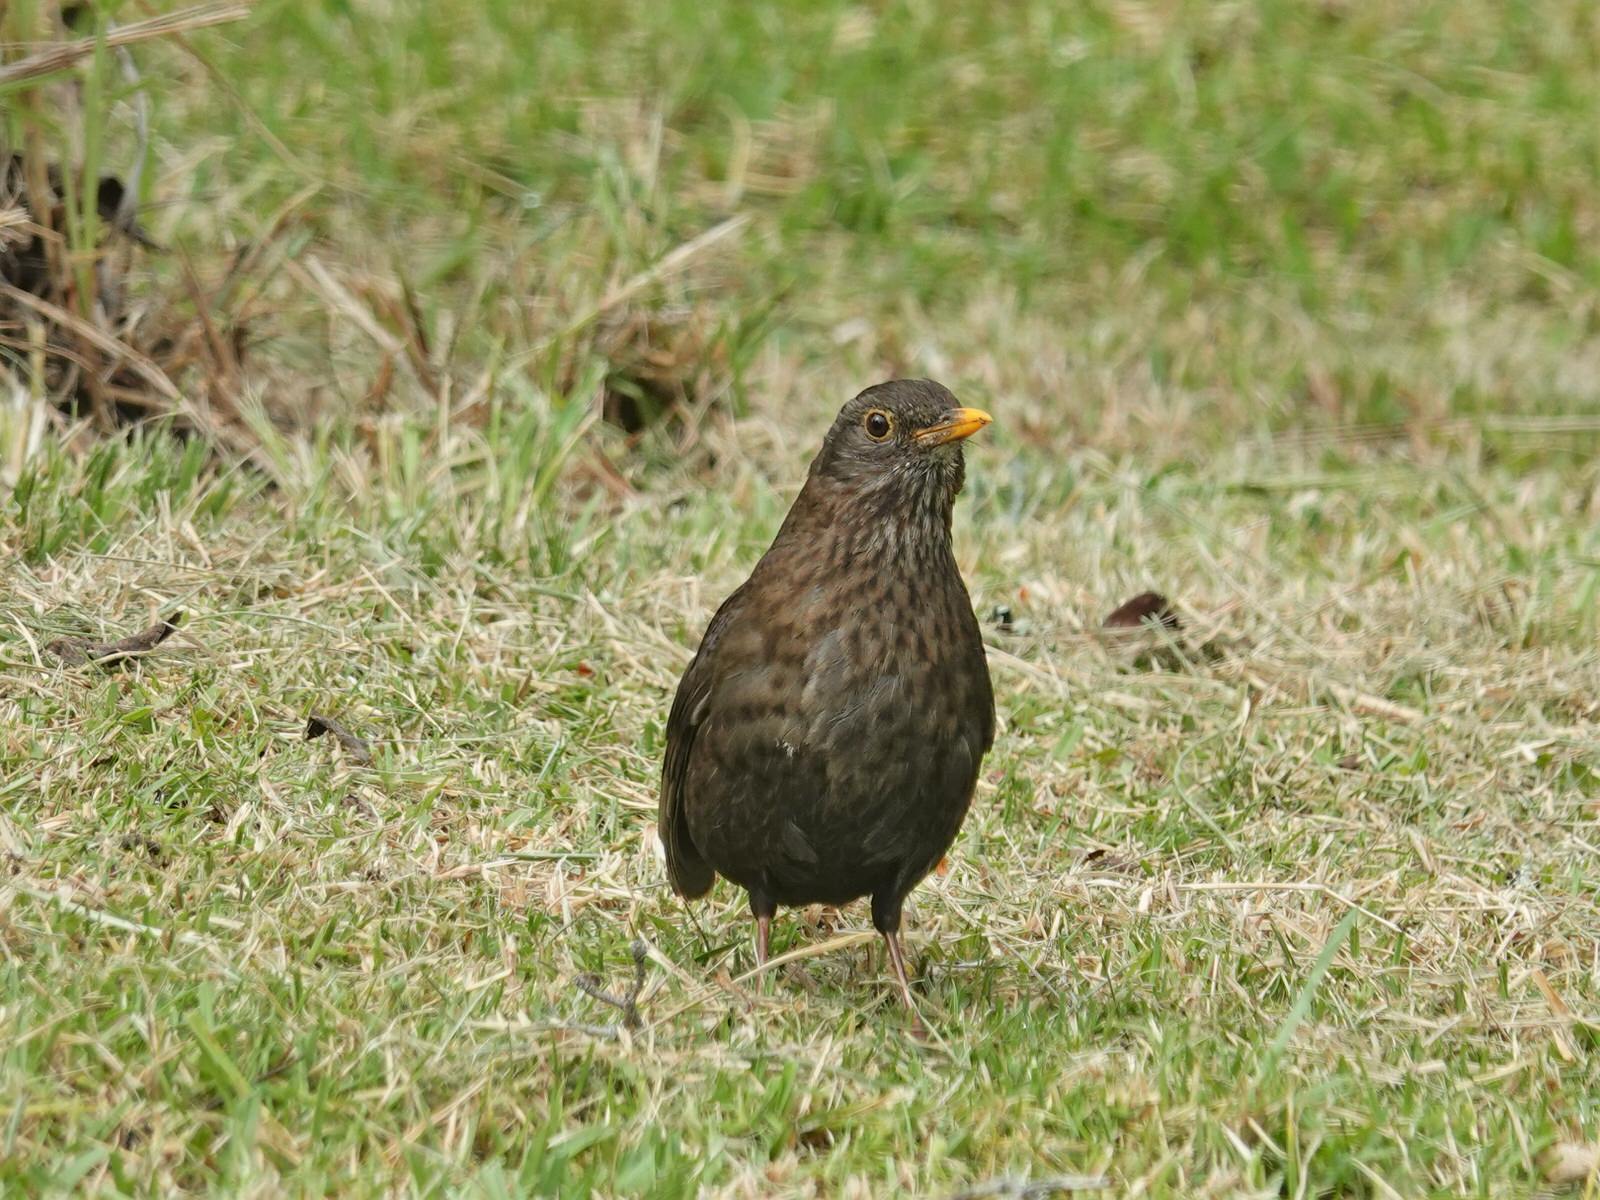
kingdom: Animalia
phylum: Chordata
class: Aves
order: Passeriformes
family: Turdidae
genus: Turdus
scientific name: Turdus merula
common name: Common blackbird
